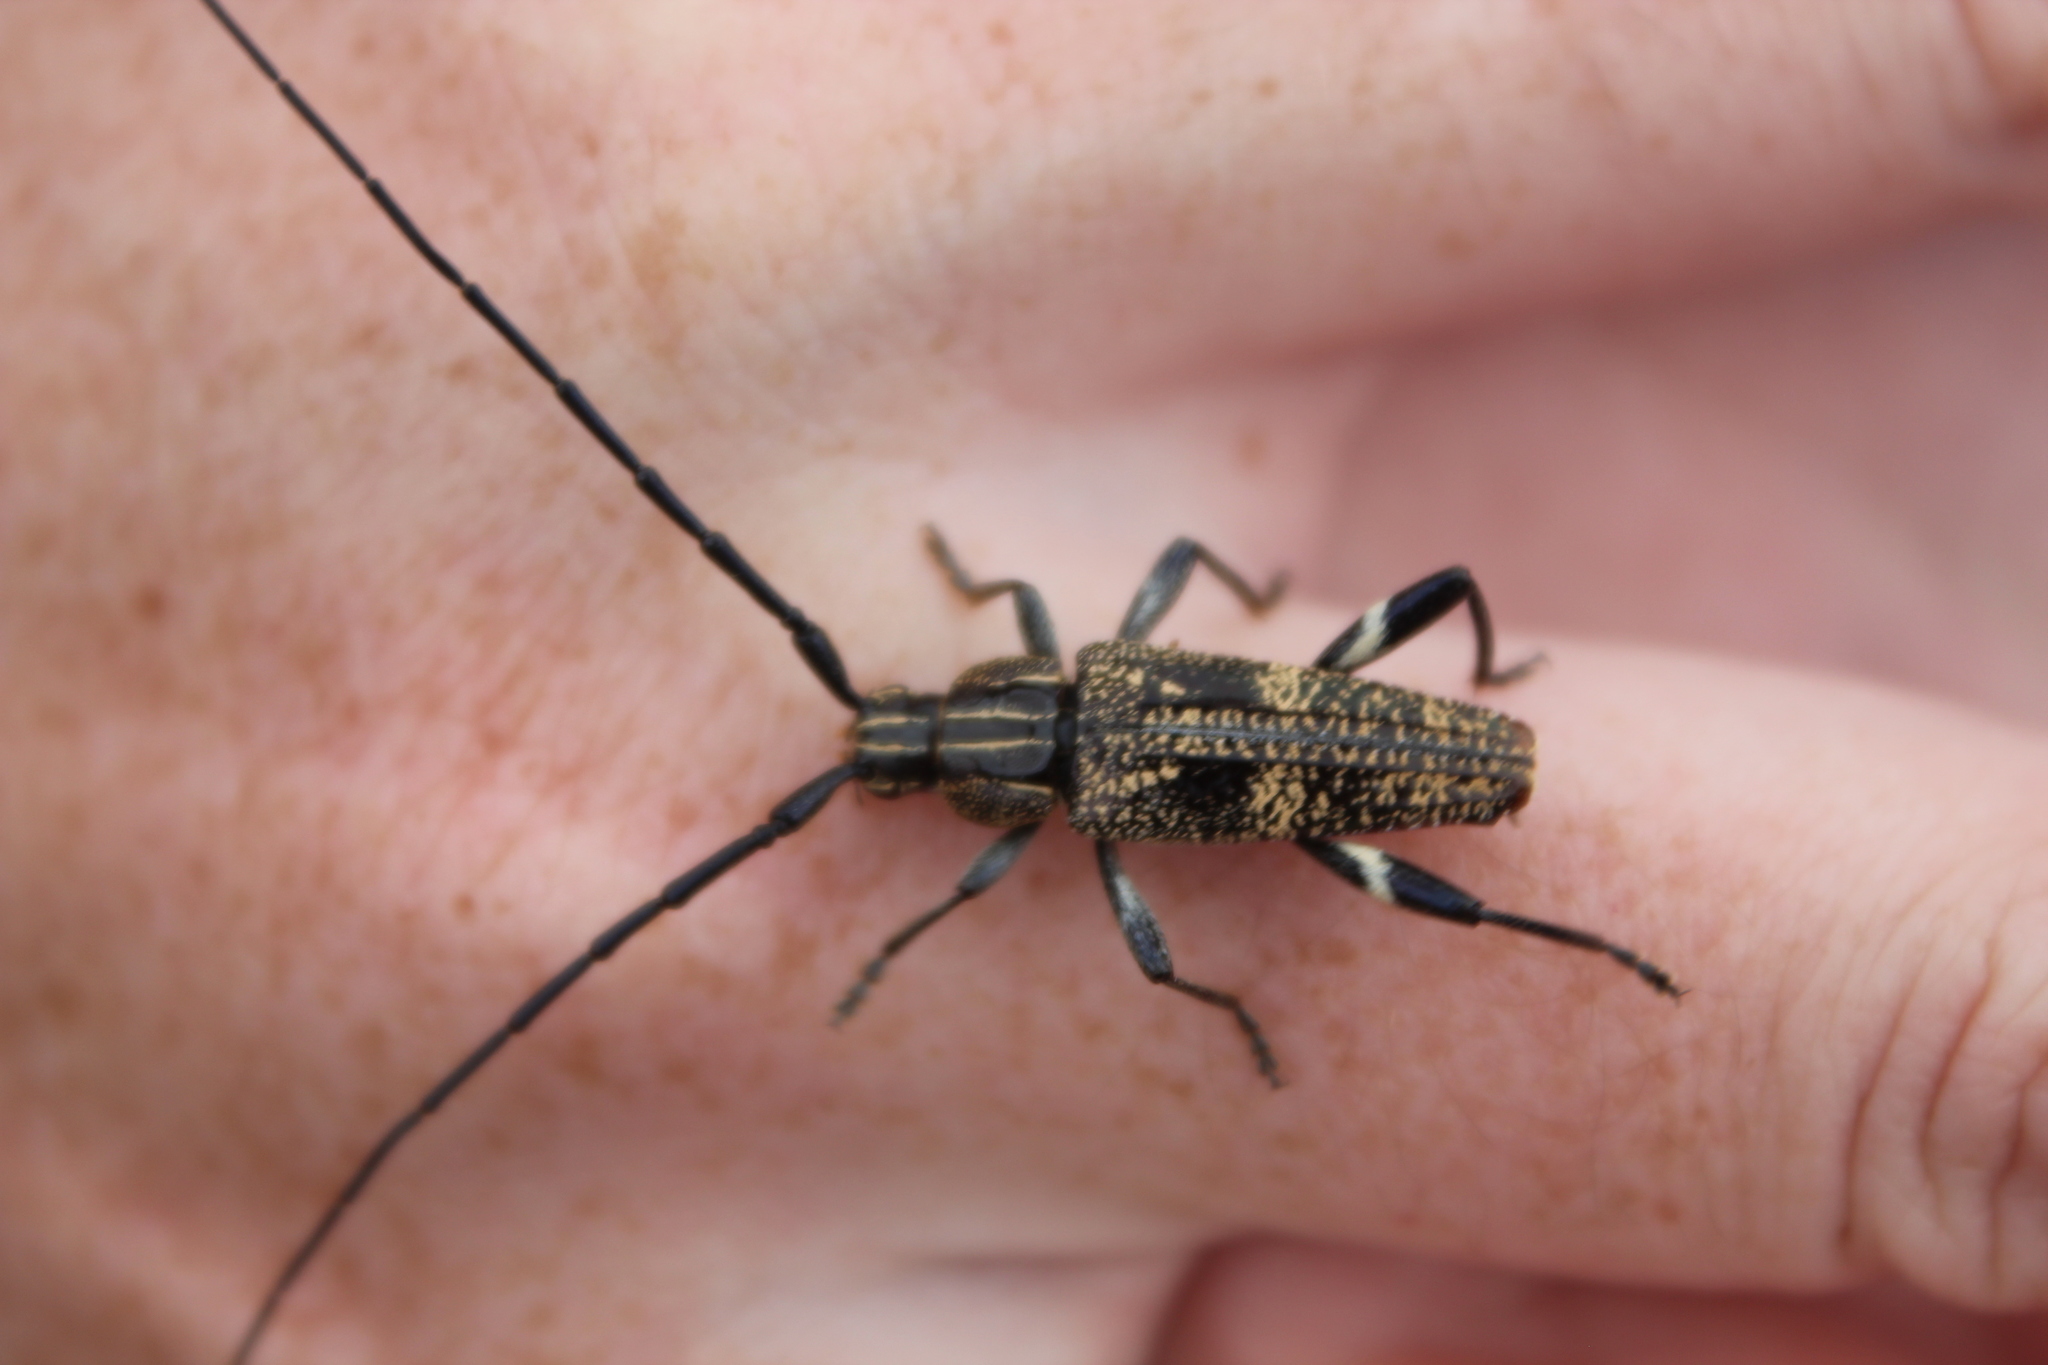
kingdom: Animalia
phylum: Arthropoda
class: Insecta
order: Coleoptera
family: Cerambycidae
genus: Coptomma
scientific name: Coptomma variegatum
